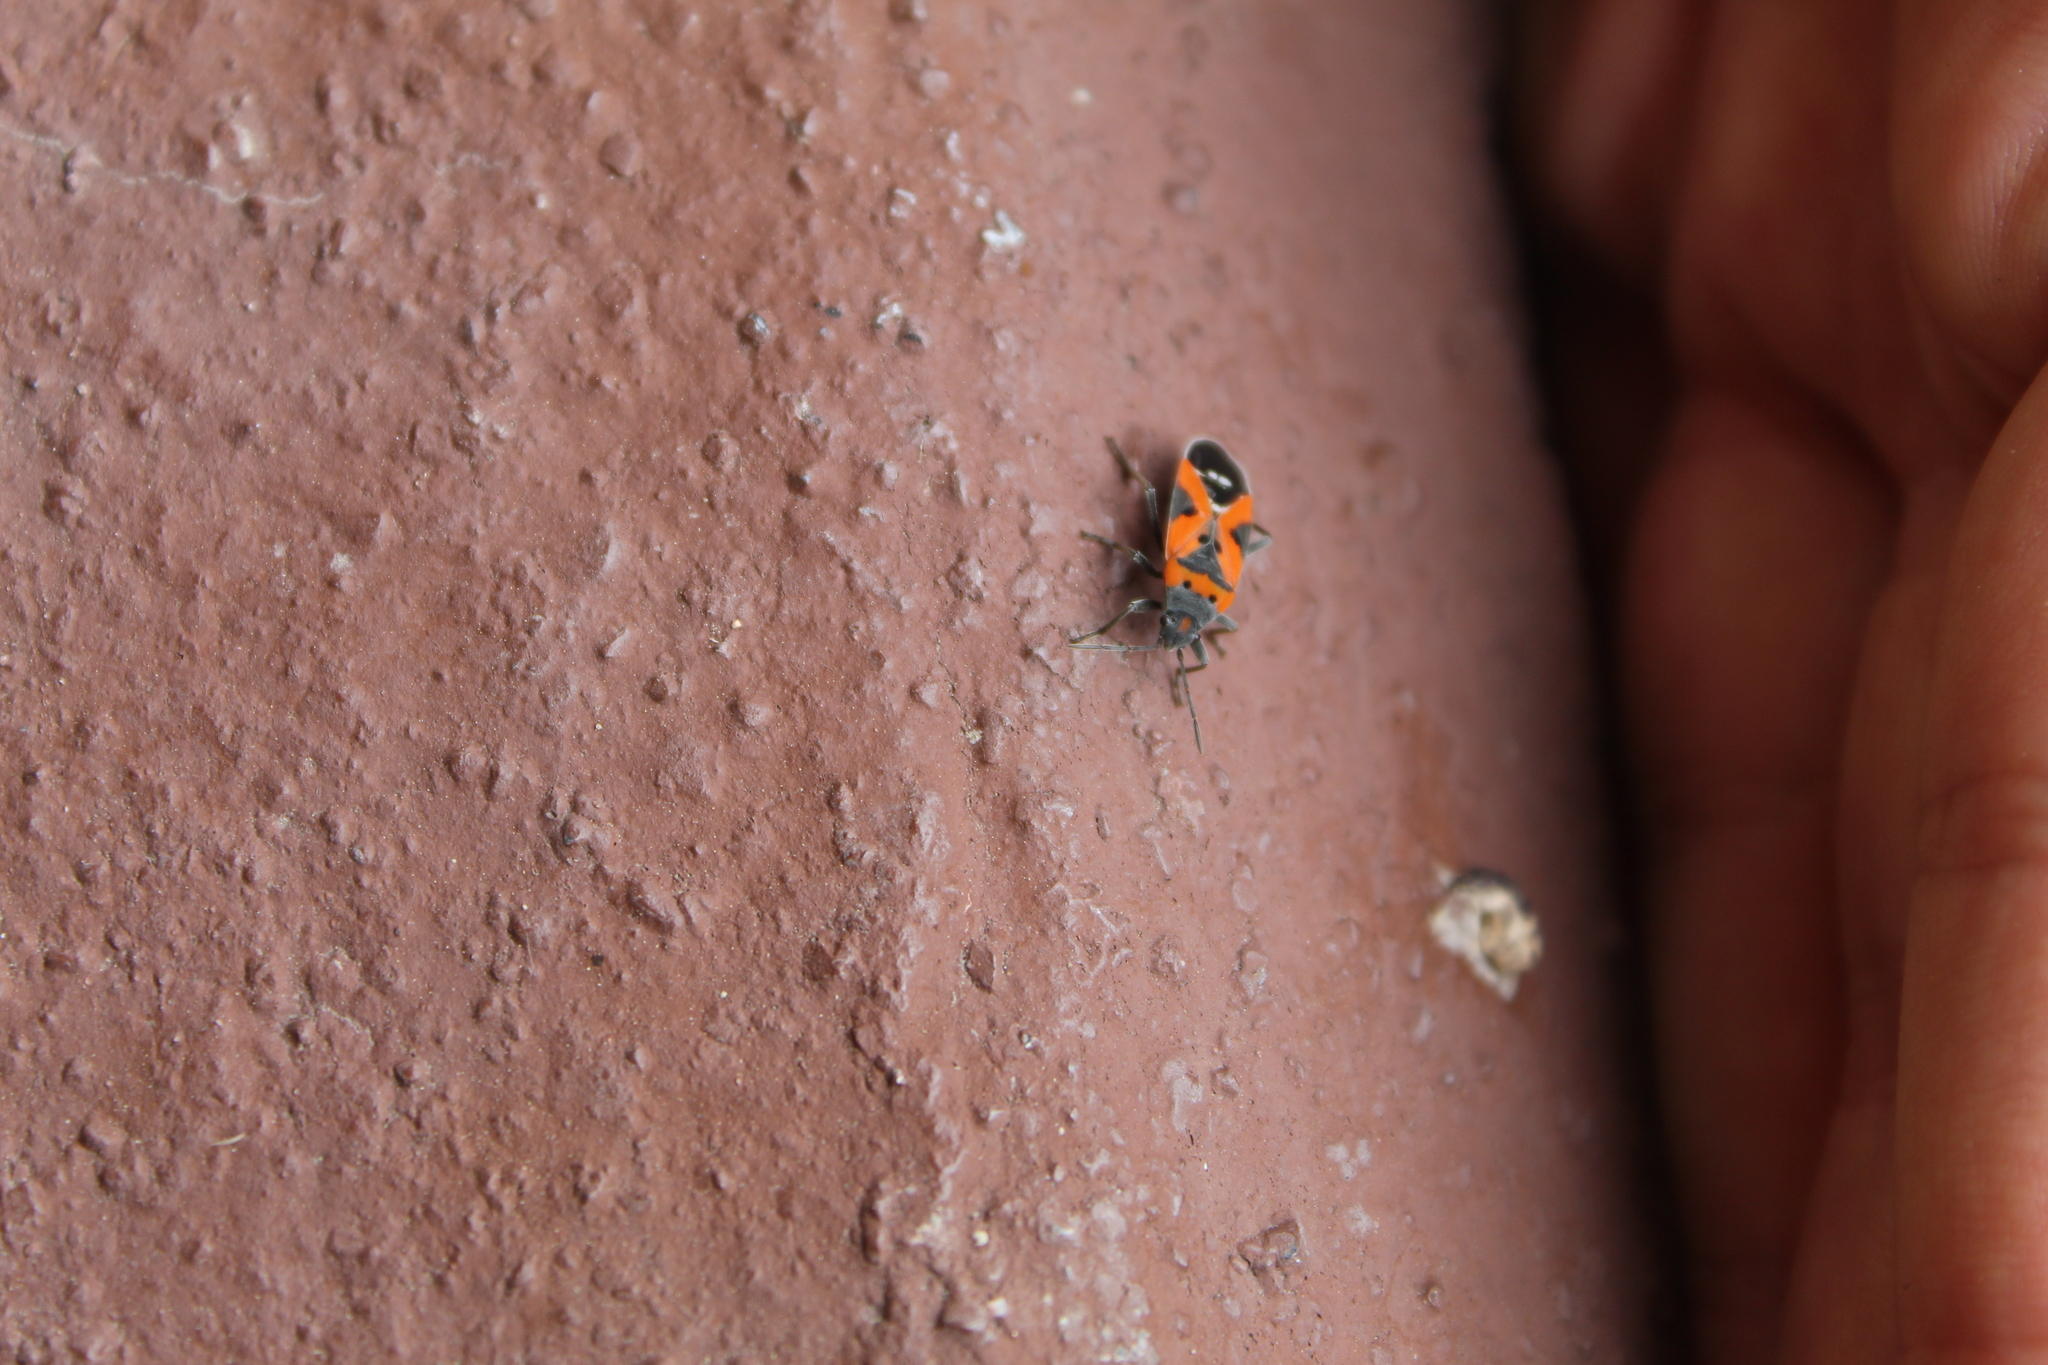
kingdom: Animalia
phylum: Arthropoda
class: Insecta
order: Hemiptera
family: Lygaeidae
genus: Lygaeus
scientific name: Lygaeus reclivatus
